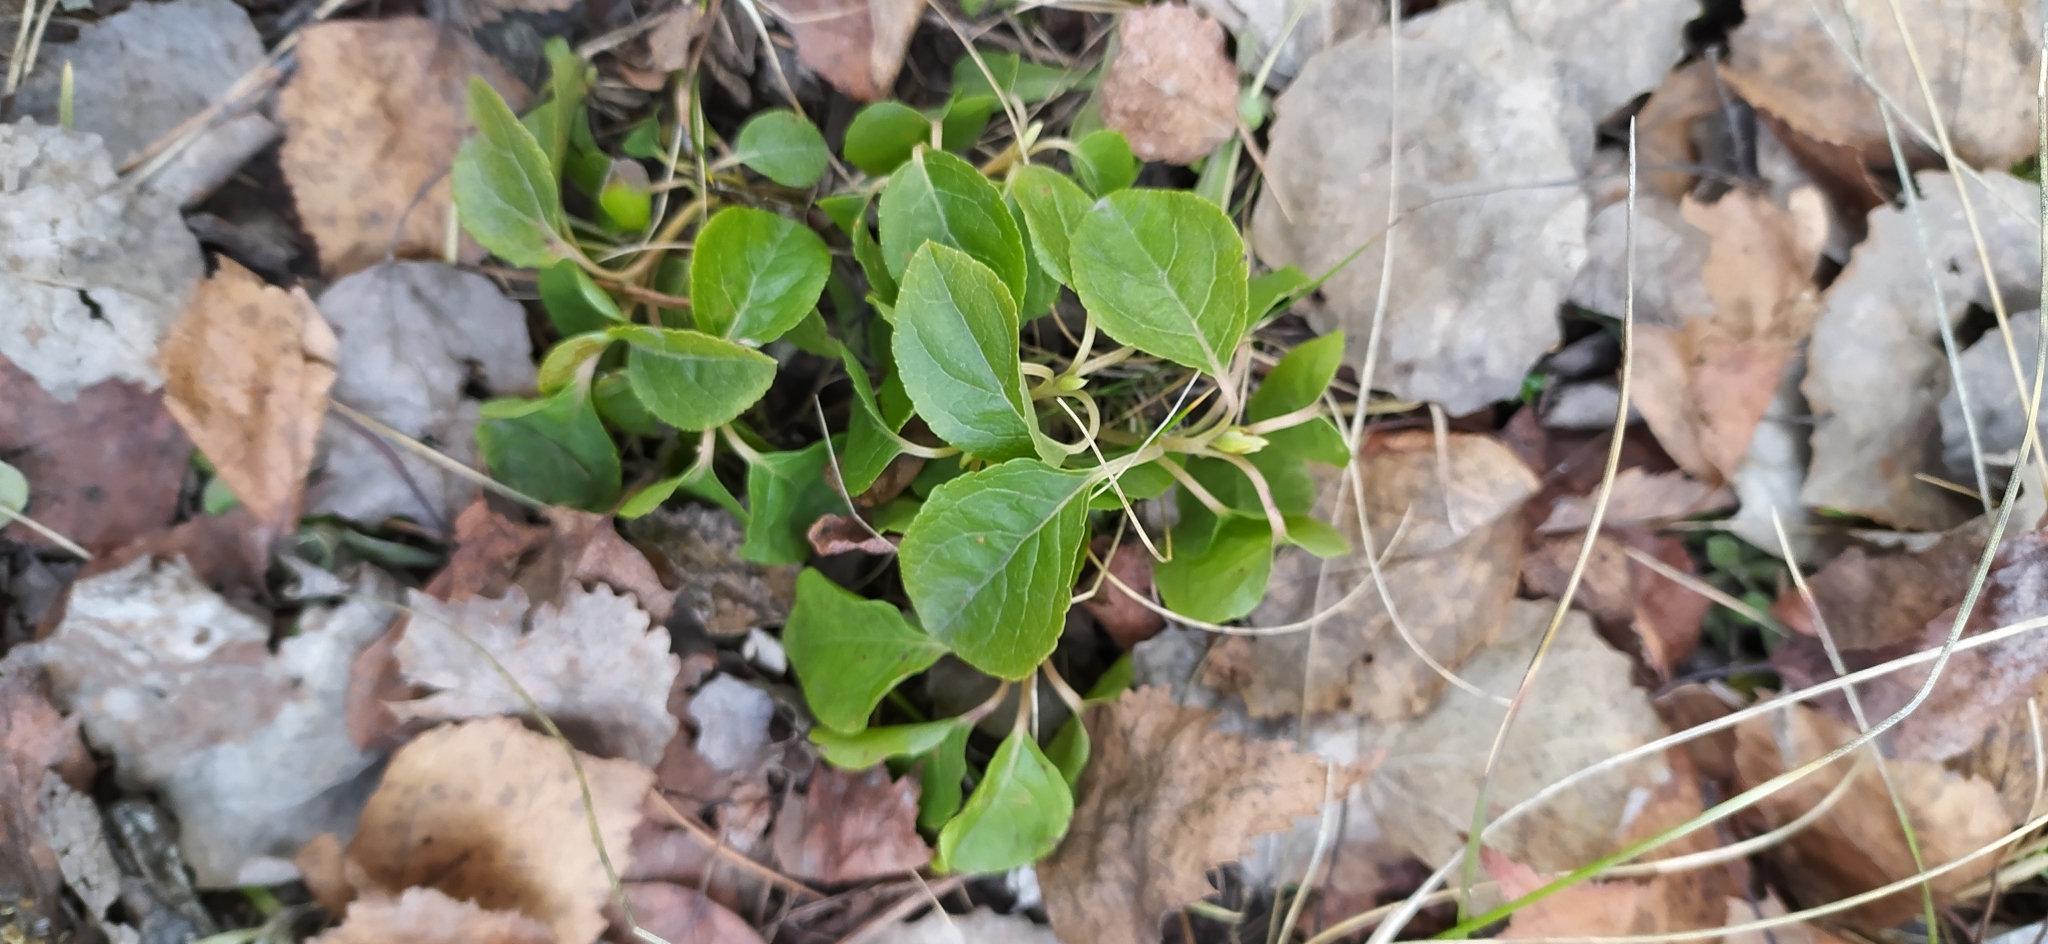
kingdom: Plantae
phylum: Tracheophyta
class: Magnoliopsida
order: Ericales
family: Ericaceae
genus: Orthilia
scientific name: Orthilia secunda
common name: One-sided orthilia
